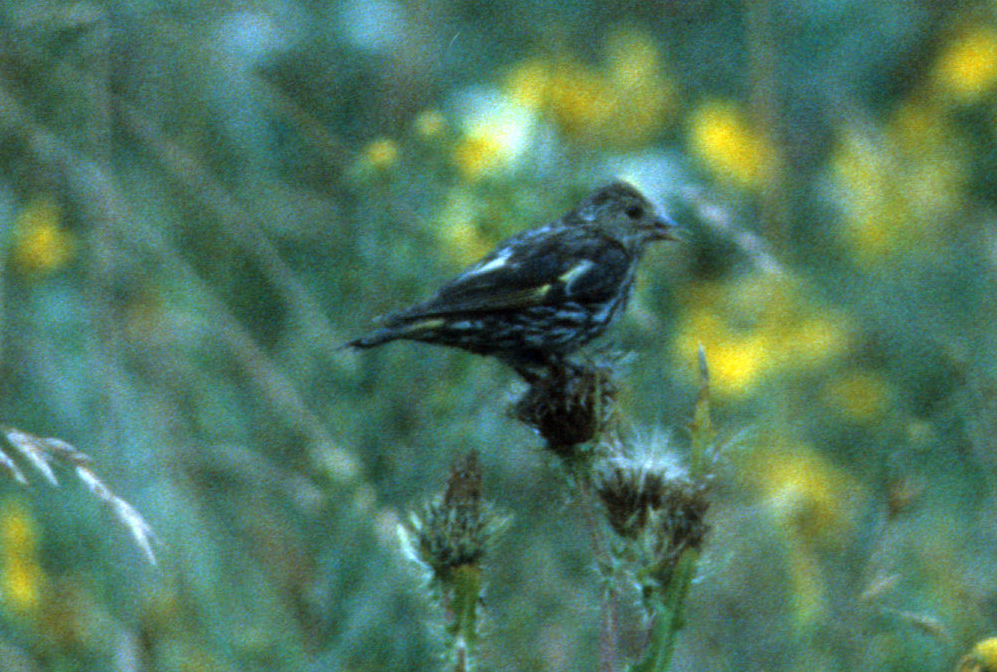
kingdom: Animalia
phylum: Chordata
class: Aves
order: Passeriformes
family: Fringillidae
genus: Spinus
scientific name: Spinus pinus
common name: Pine siskin
